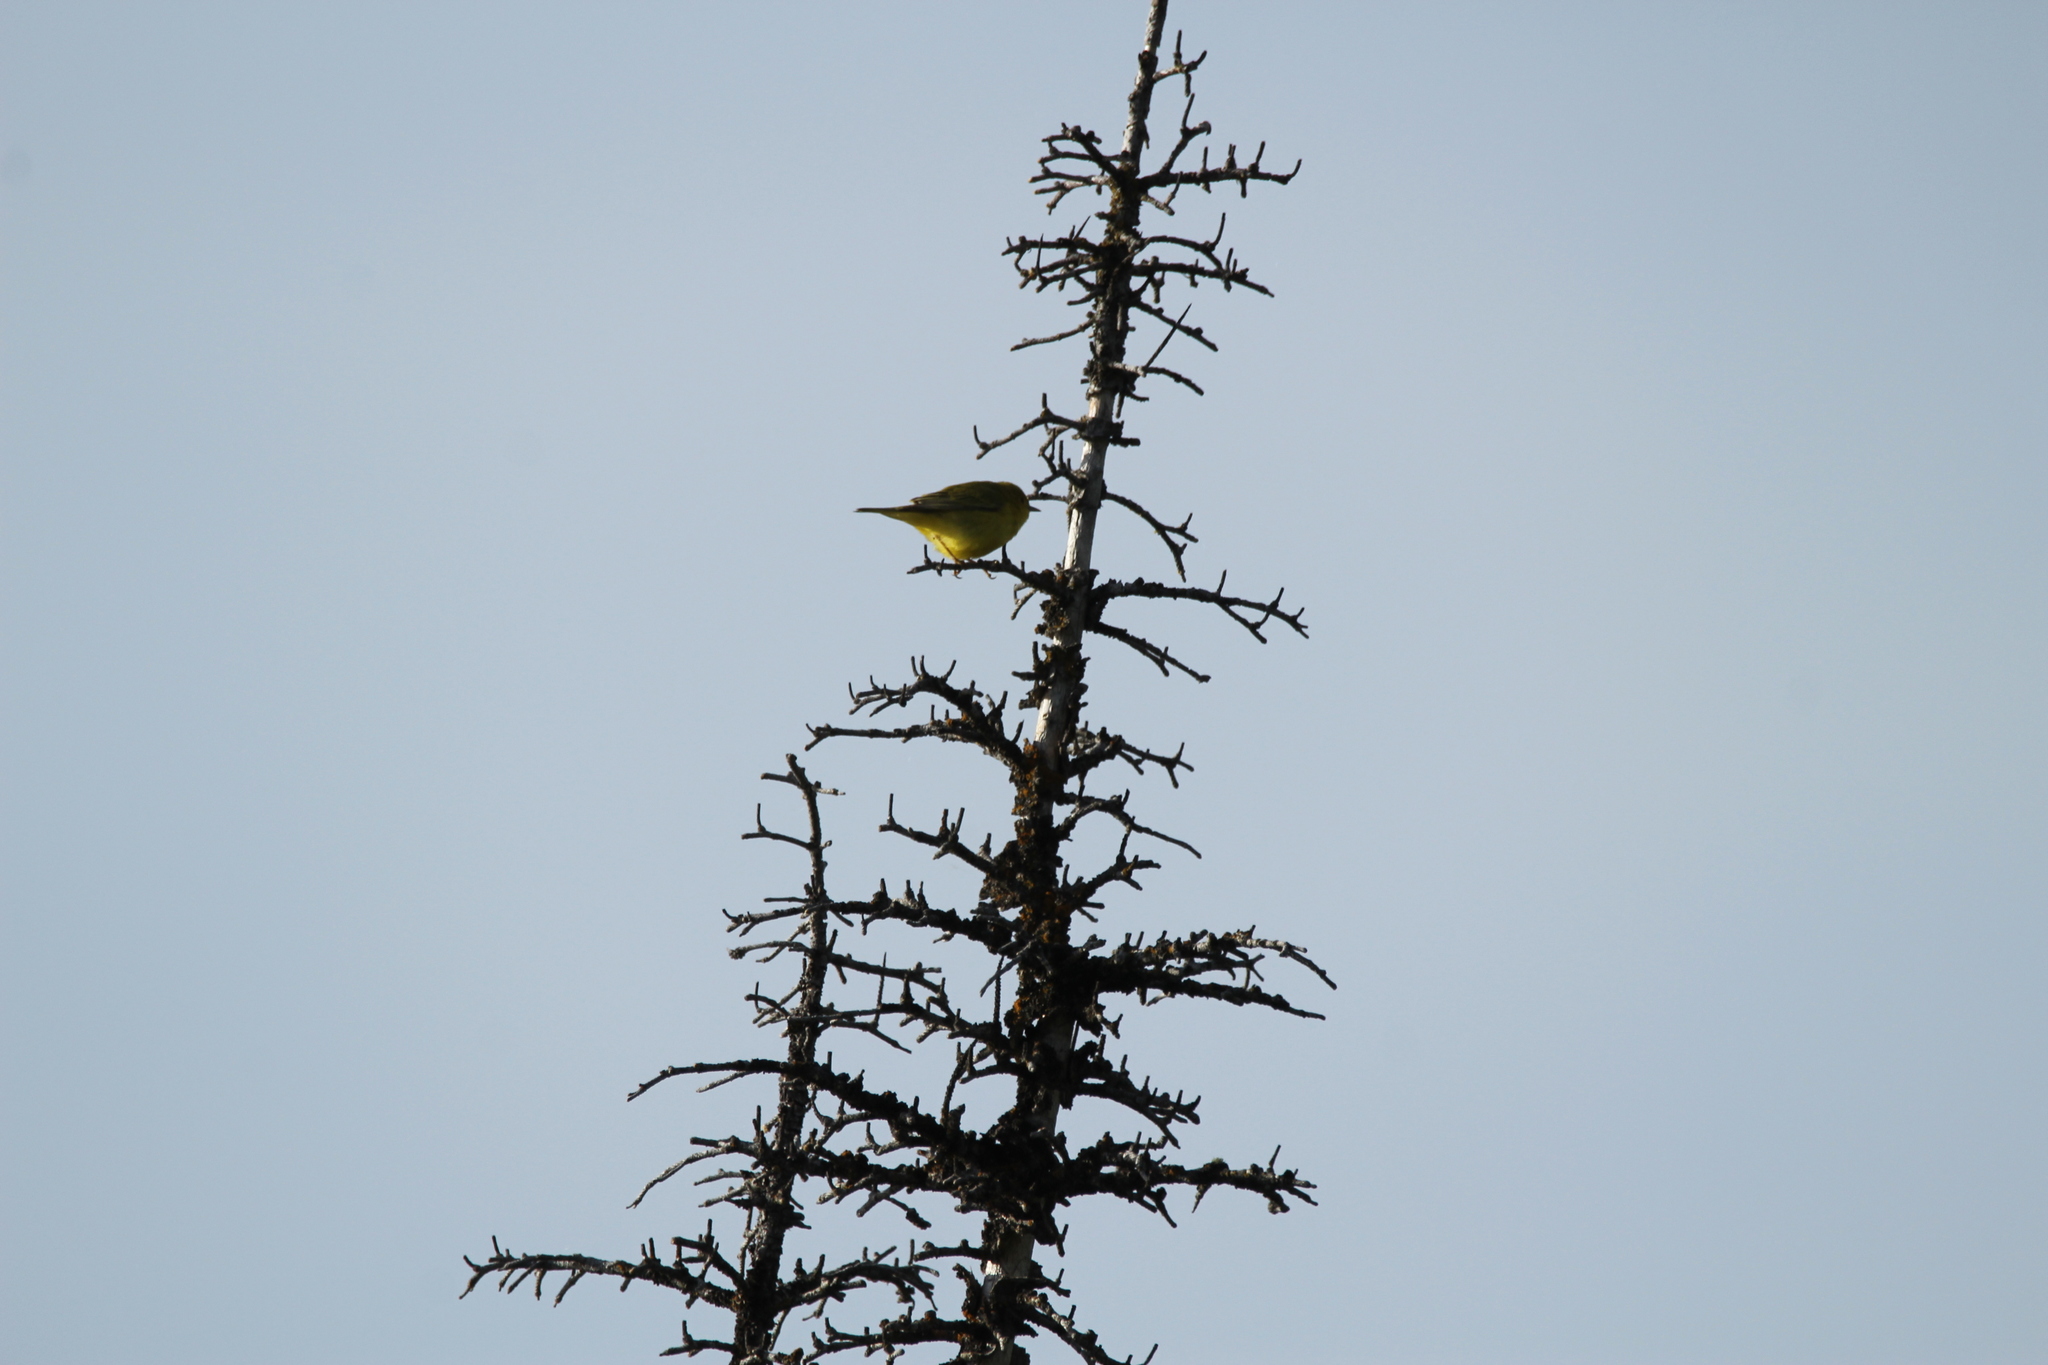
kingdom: Animalia
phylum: Chordata
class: Aves
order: Passeriformes
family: Parulidae
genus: Setophaga
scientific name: Setophaga petechia
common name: Yellow warbler
